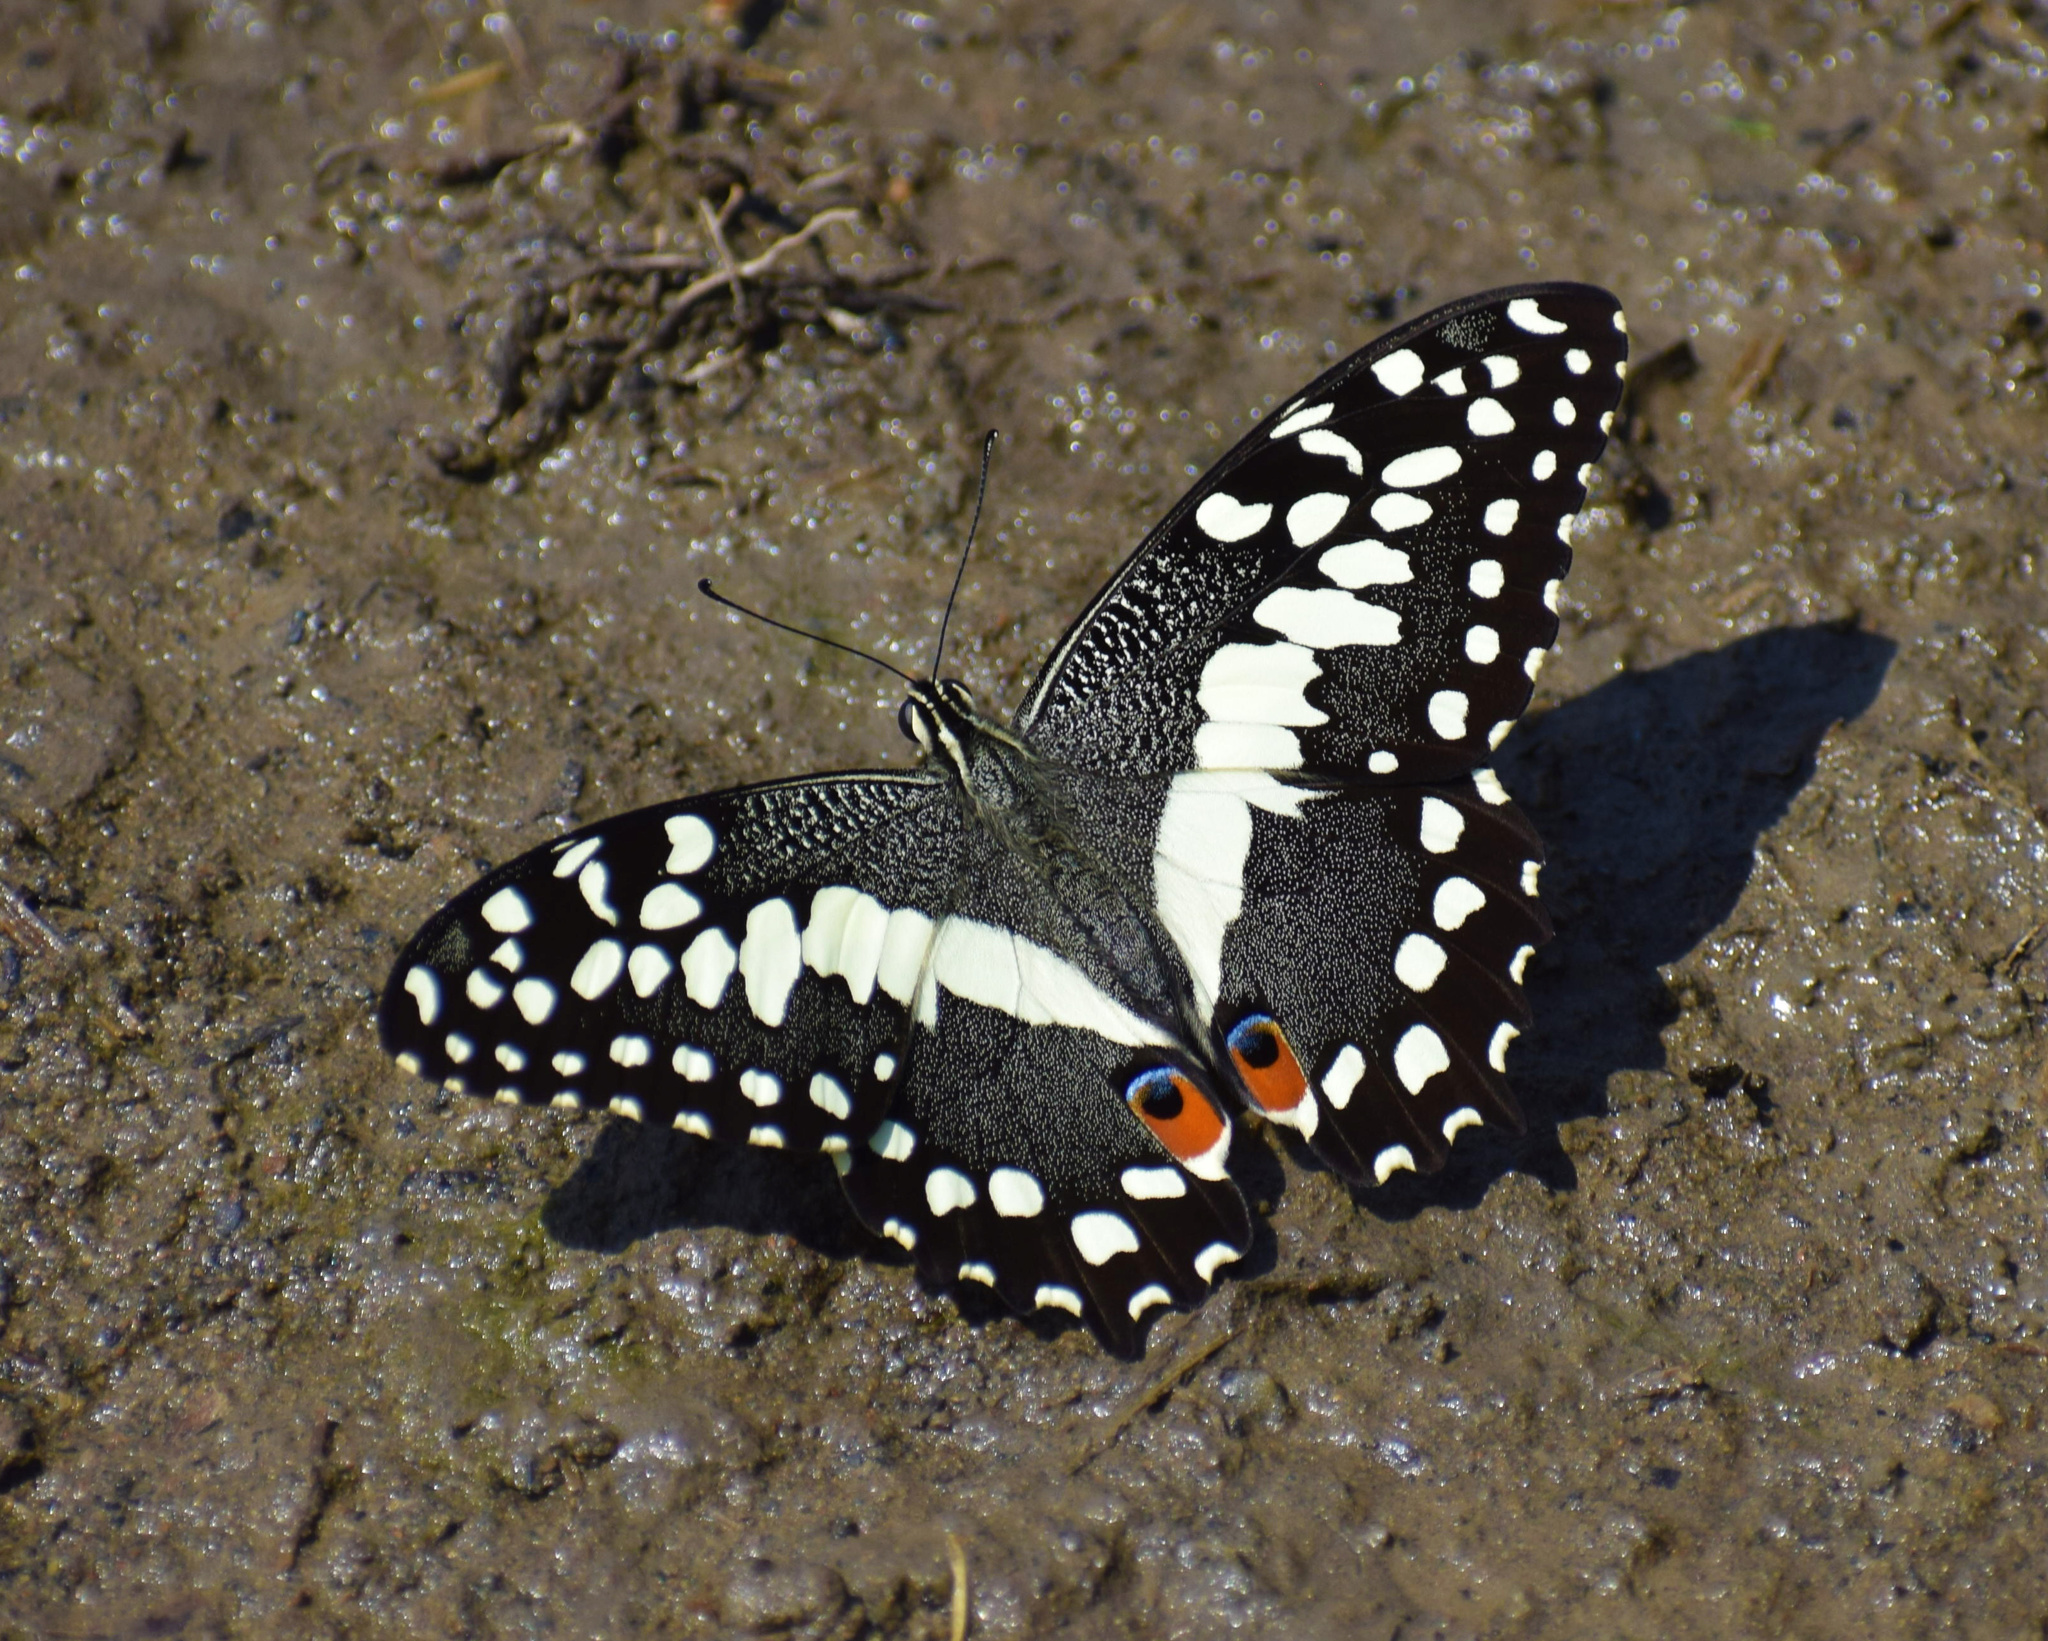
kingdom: Animalia
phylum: Arthropoda
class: Insecta
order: Lepidoptera
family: Papilionidae
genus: Papilio
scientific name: Papilio demodocus
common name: Christmas butterfly
